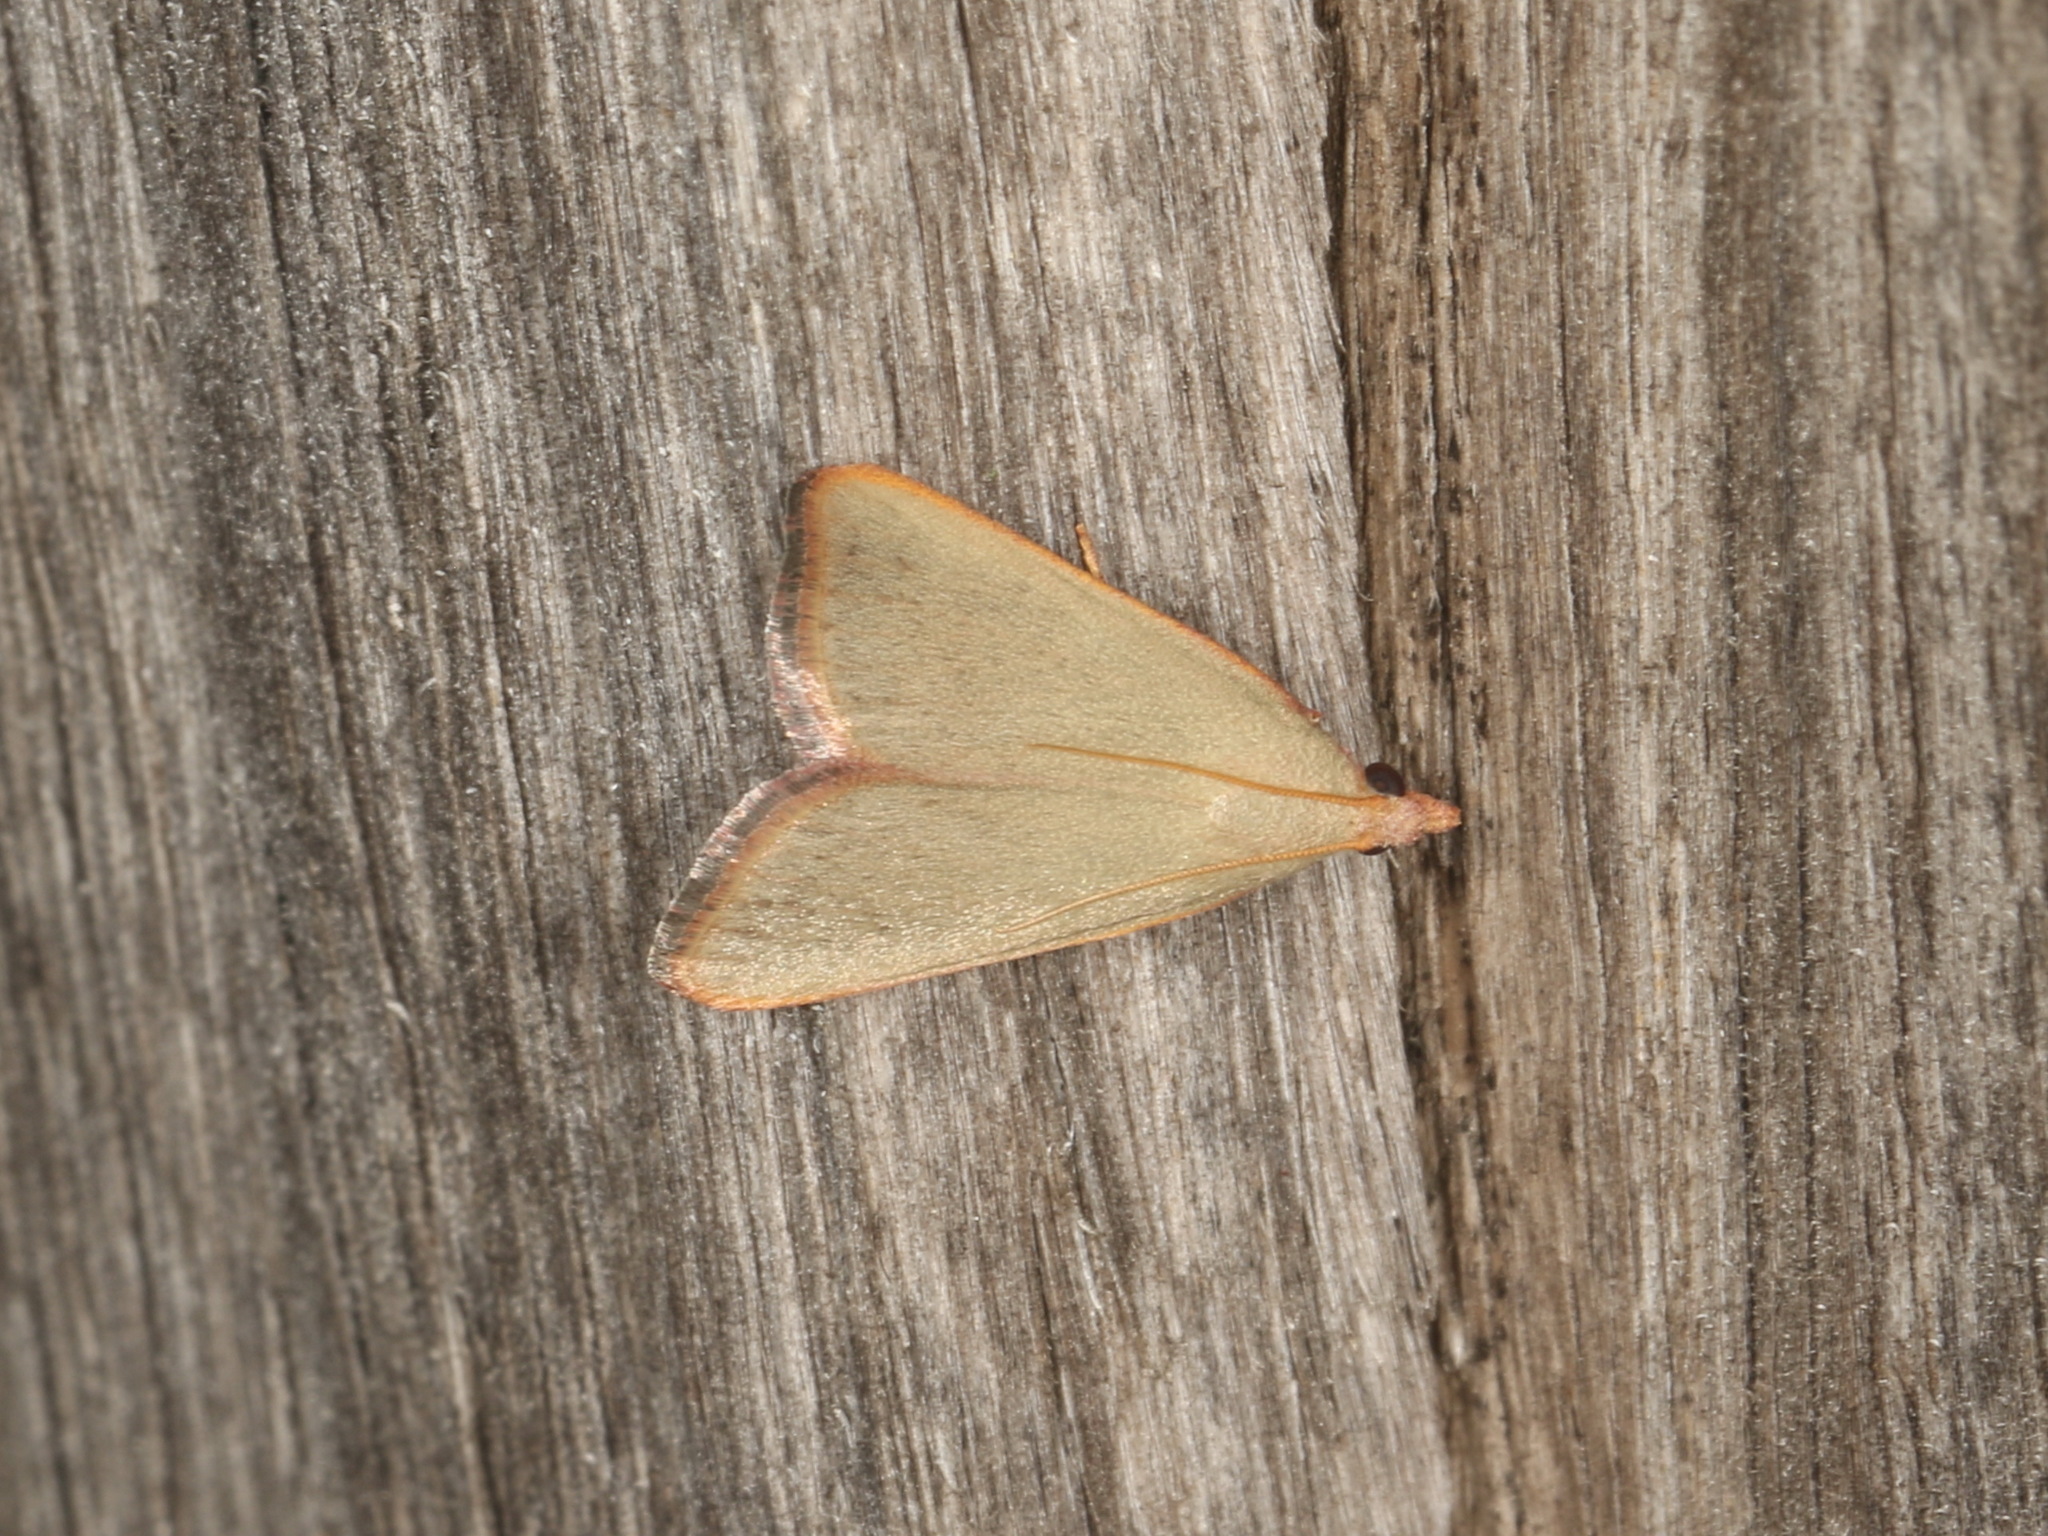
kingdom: Animalia
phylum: Arthropoda
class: Insecta
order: Lepidoptera
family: Pyralidae
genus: Hypsopygia
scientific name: Hypsopygia
